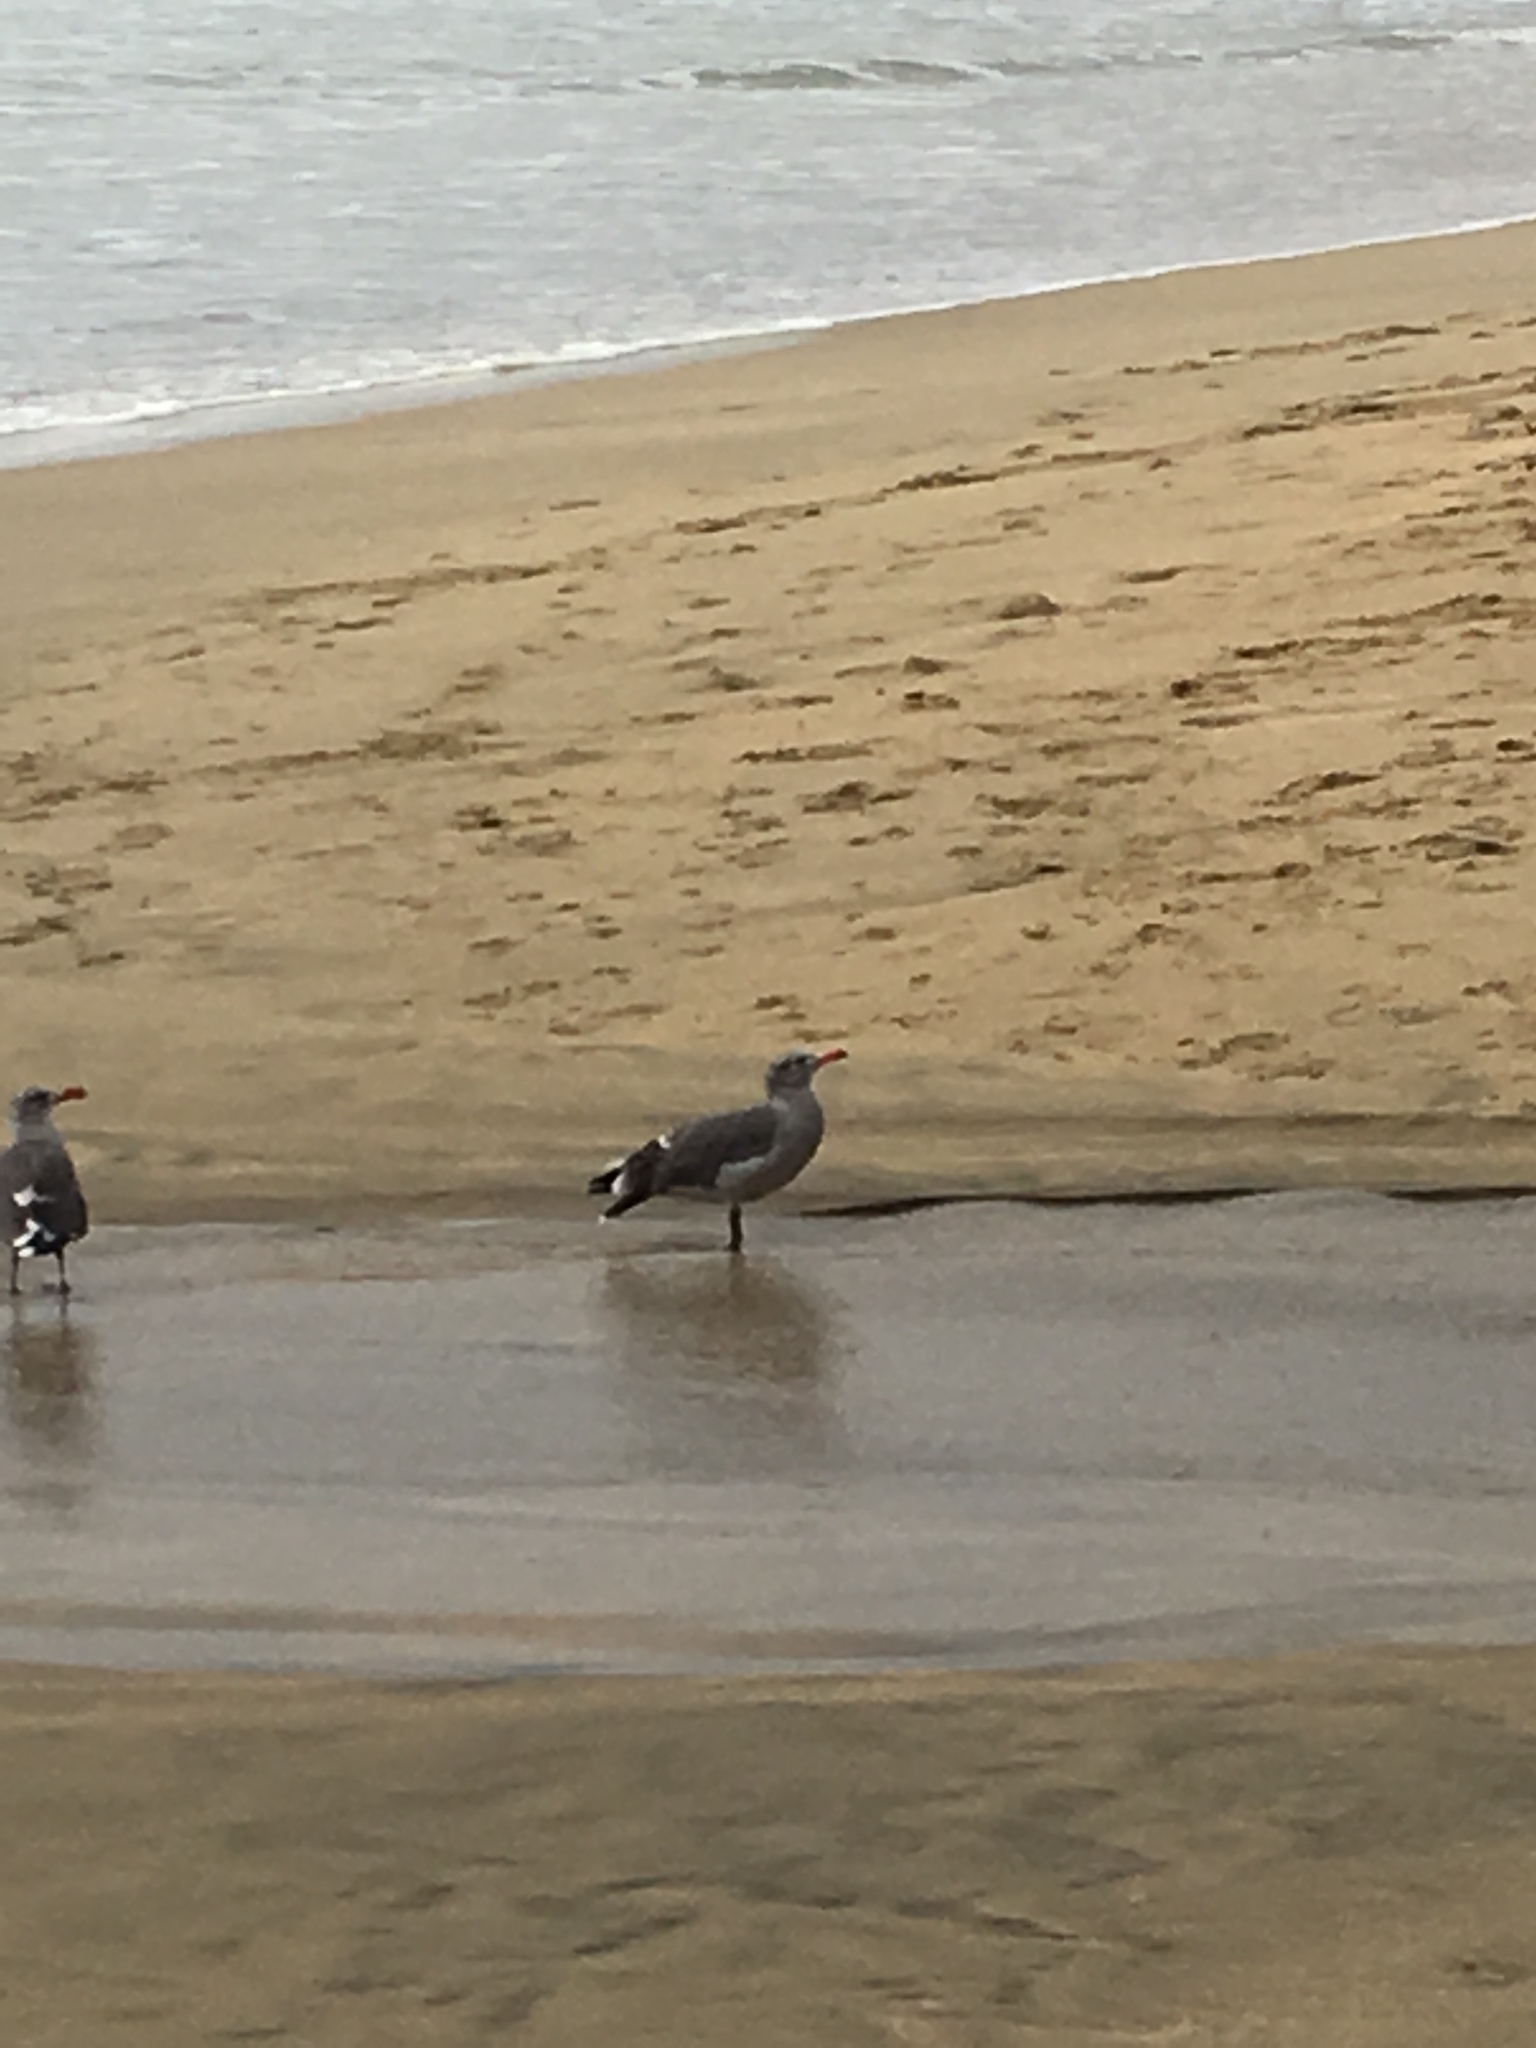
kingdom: Animalia
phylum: Chordata
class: Aves
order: Charadriiformes
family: Laridae
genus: Larus
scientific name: Larus heermanni
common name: Heermann's gull
